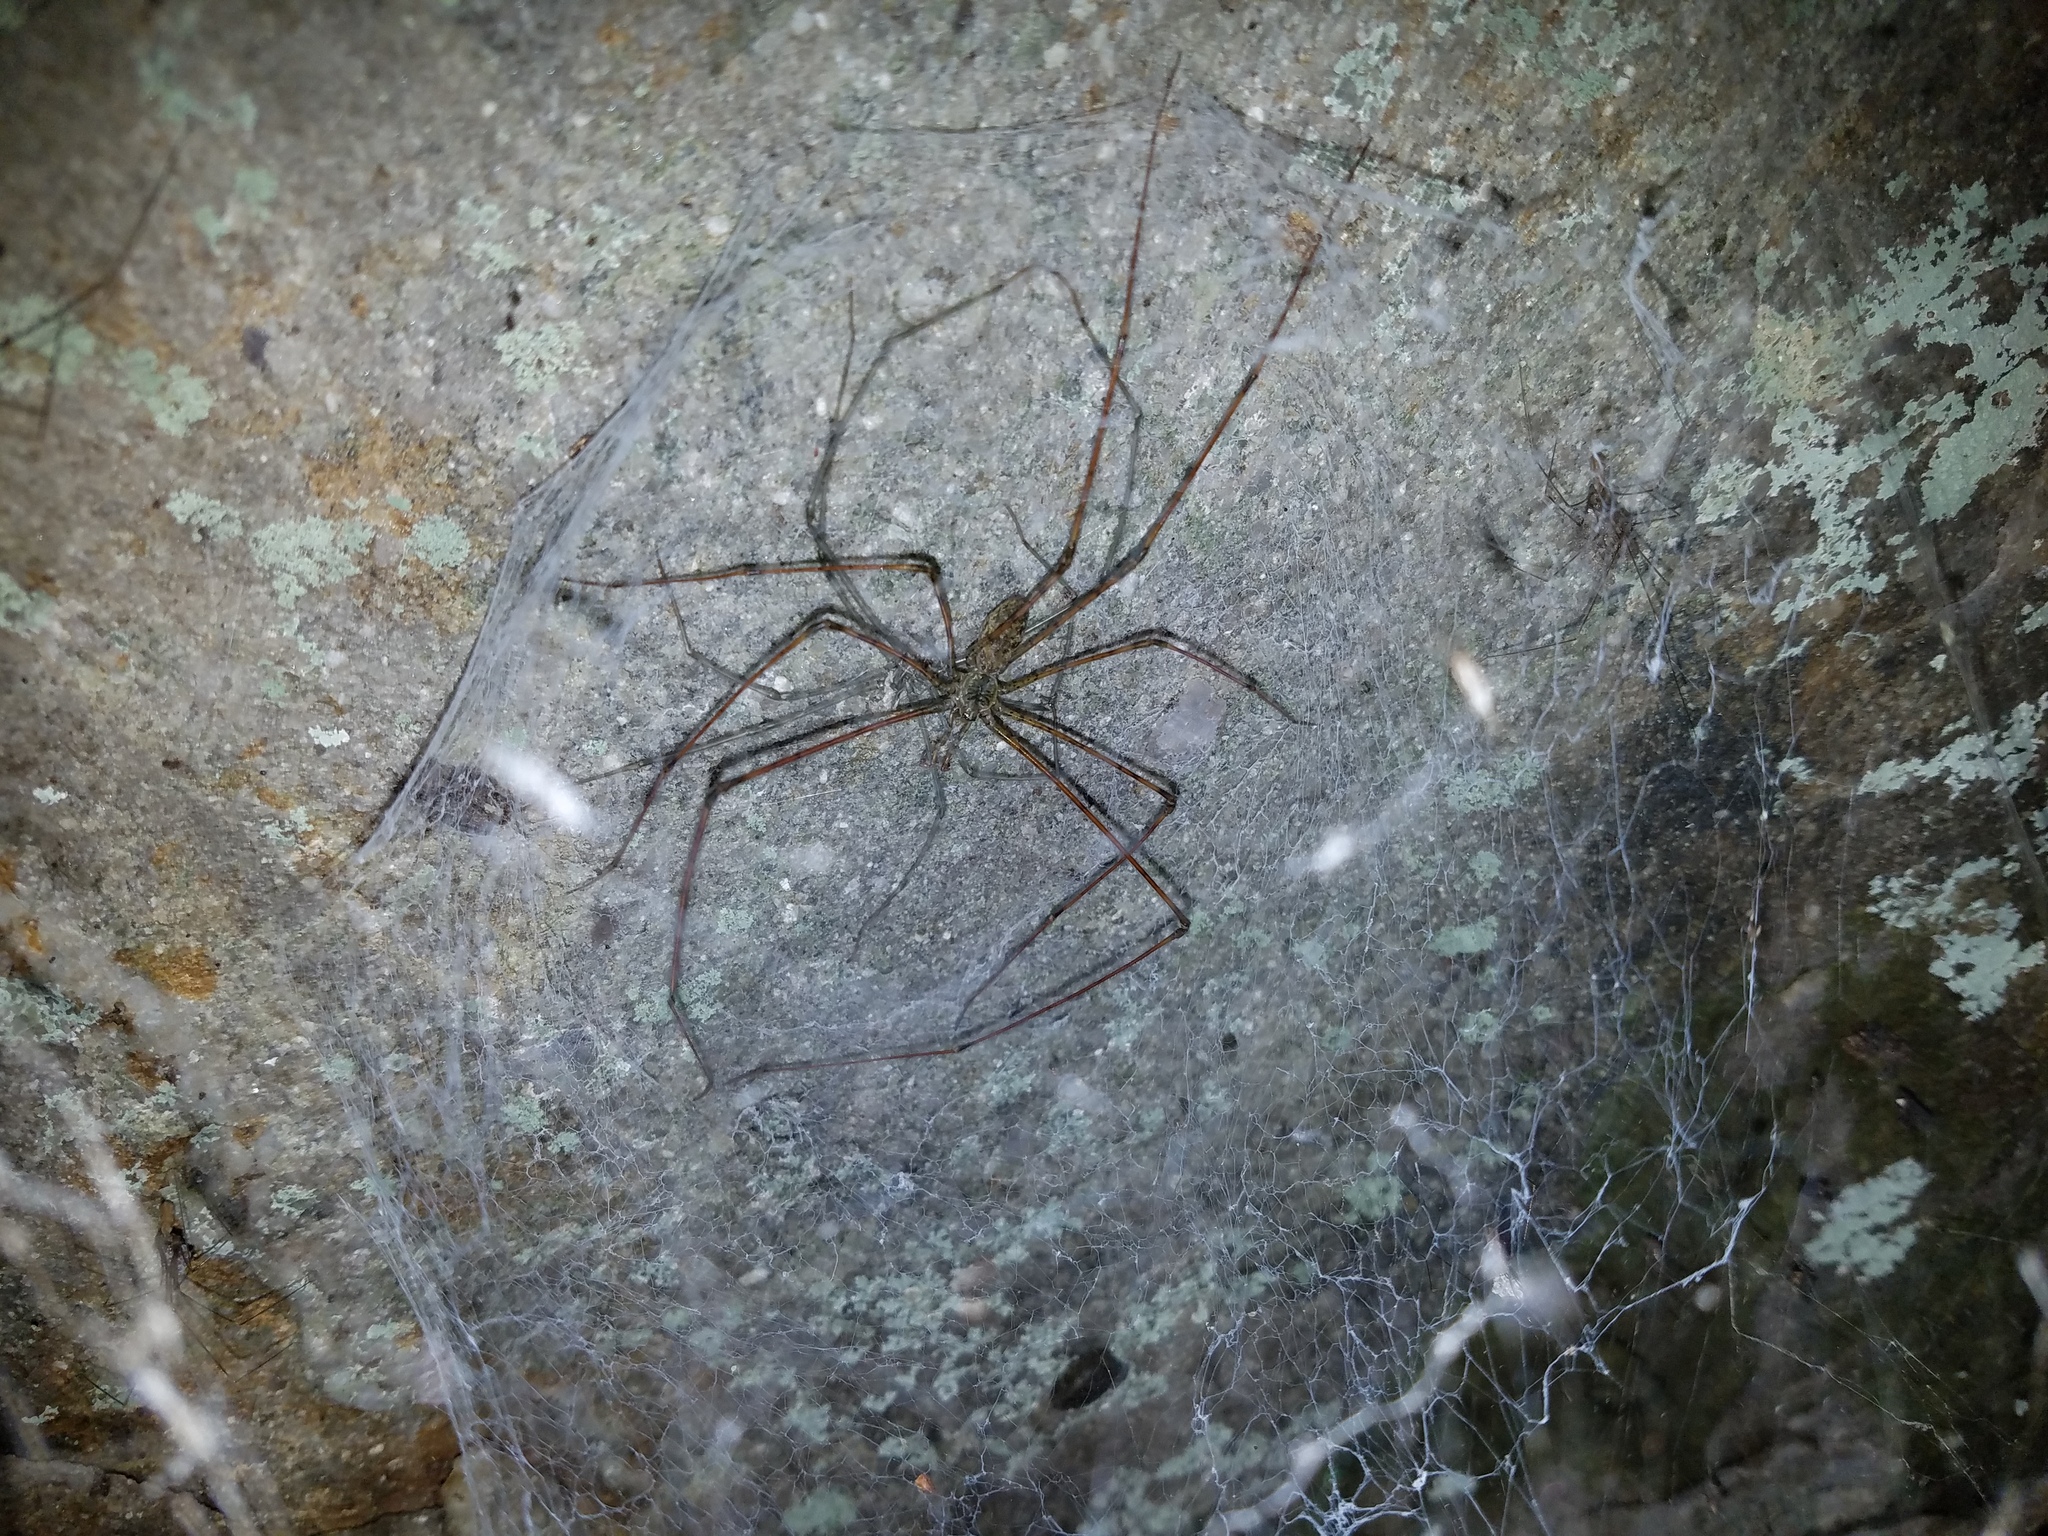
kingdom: Animalia
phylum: Arthropoda
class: Arachnida
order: Araneae
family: Hypochilidae
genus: Hypochilus
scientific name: Hypochilus pococki
